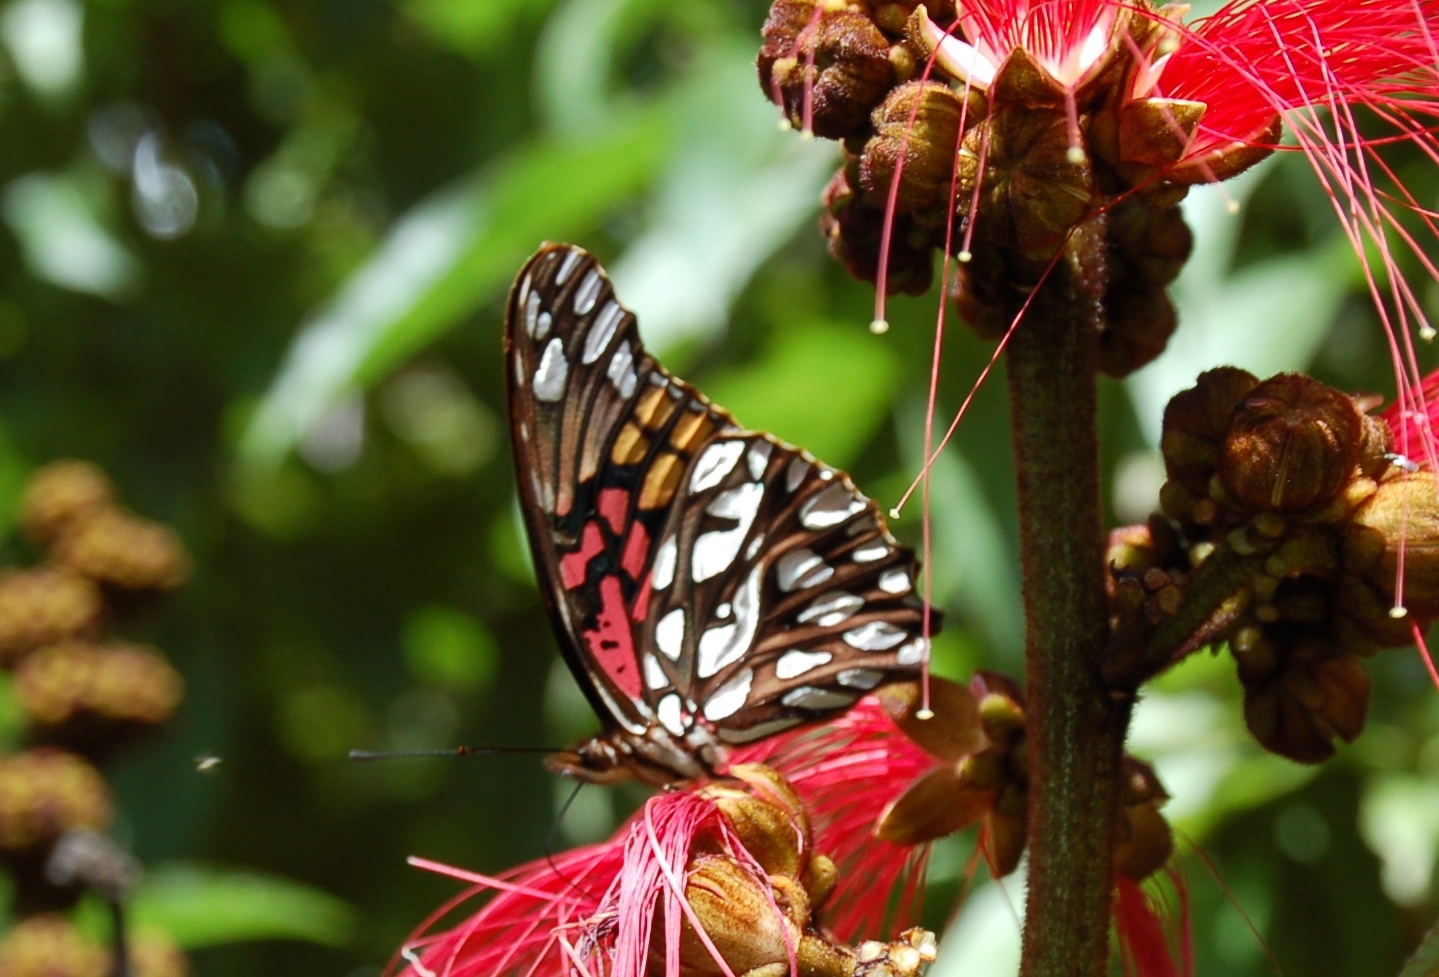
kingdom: Animalia
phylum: Arthropoda
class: Insecta
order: Lepidoptera
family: Nymphalidae
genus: Dione
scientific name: Dione moneta
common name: Mexican silverspot
